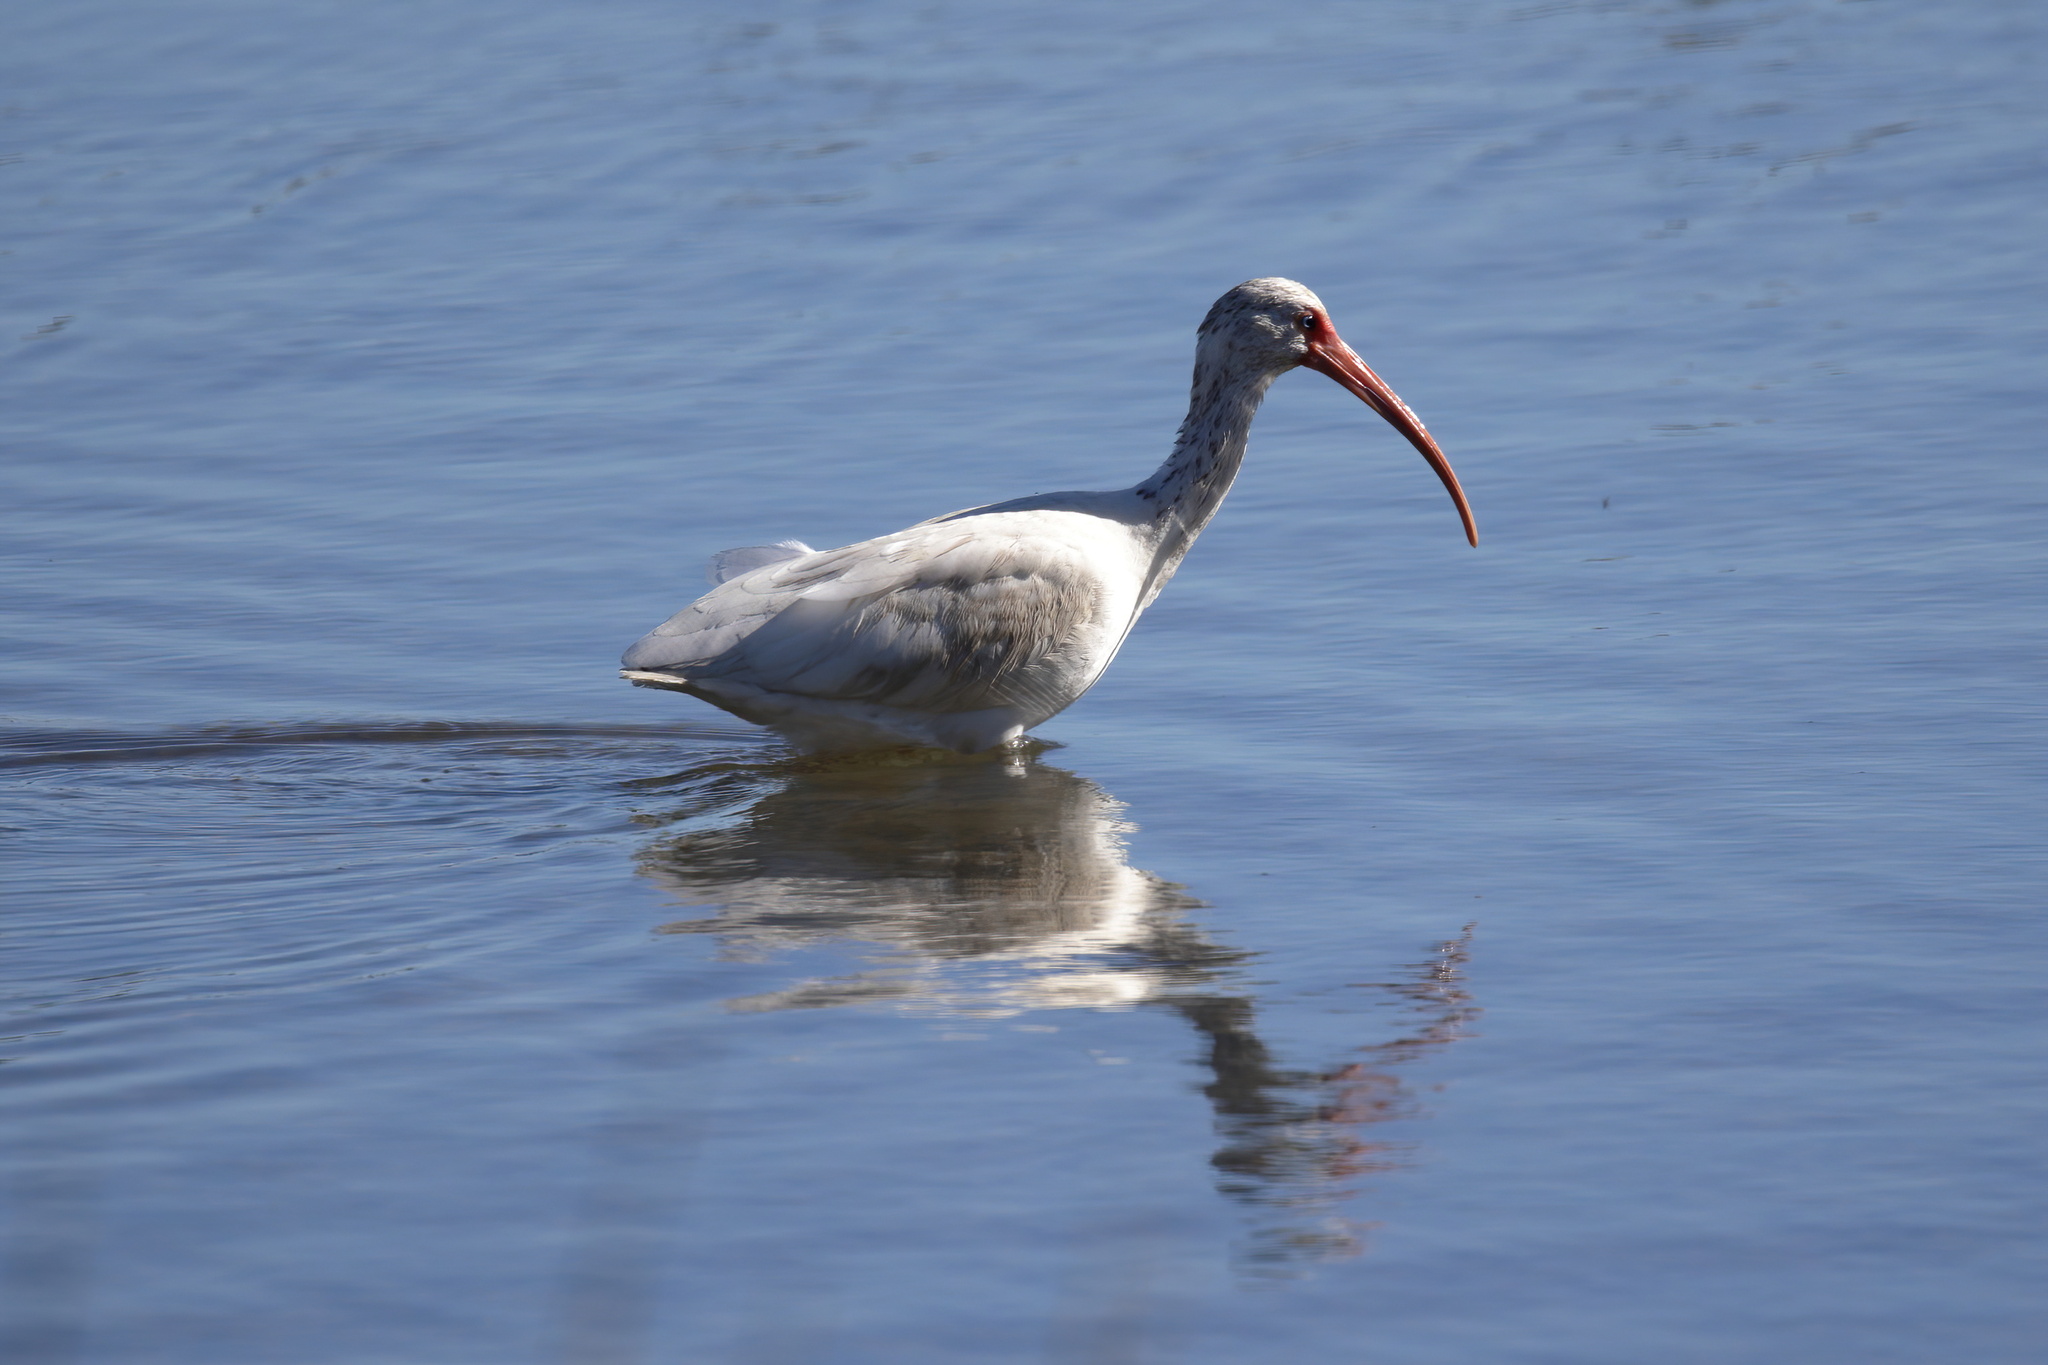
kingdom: Animalia
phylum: Chordata
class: Aves
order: Pelecaniformes
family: Threskiornithidae
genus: Eudocimus
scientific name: Eudocimus albus
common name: White ibis
